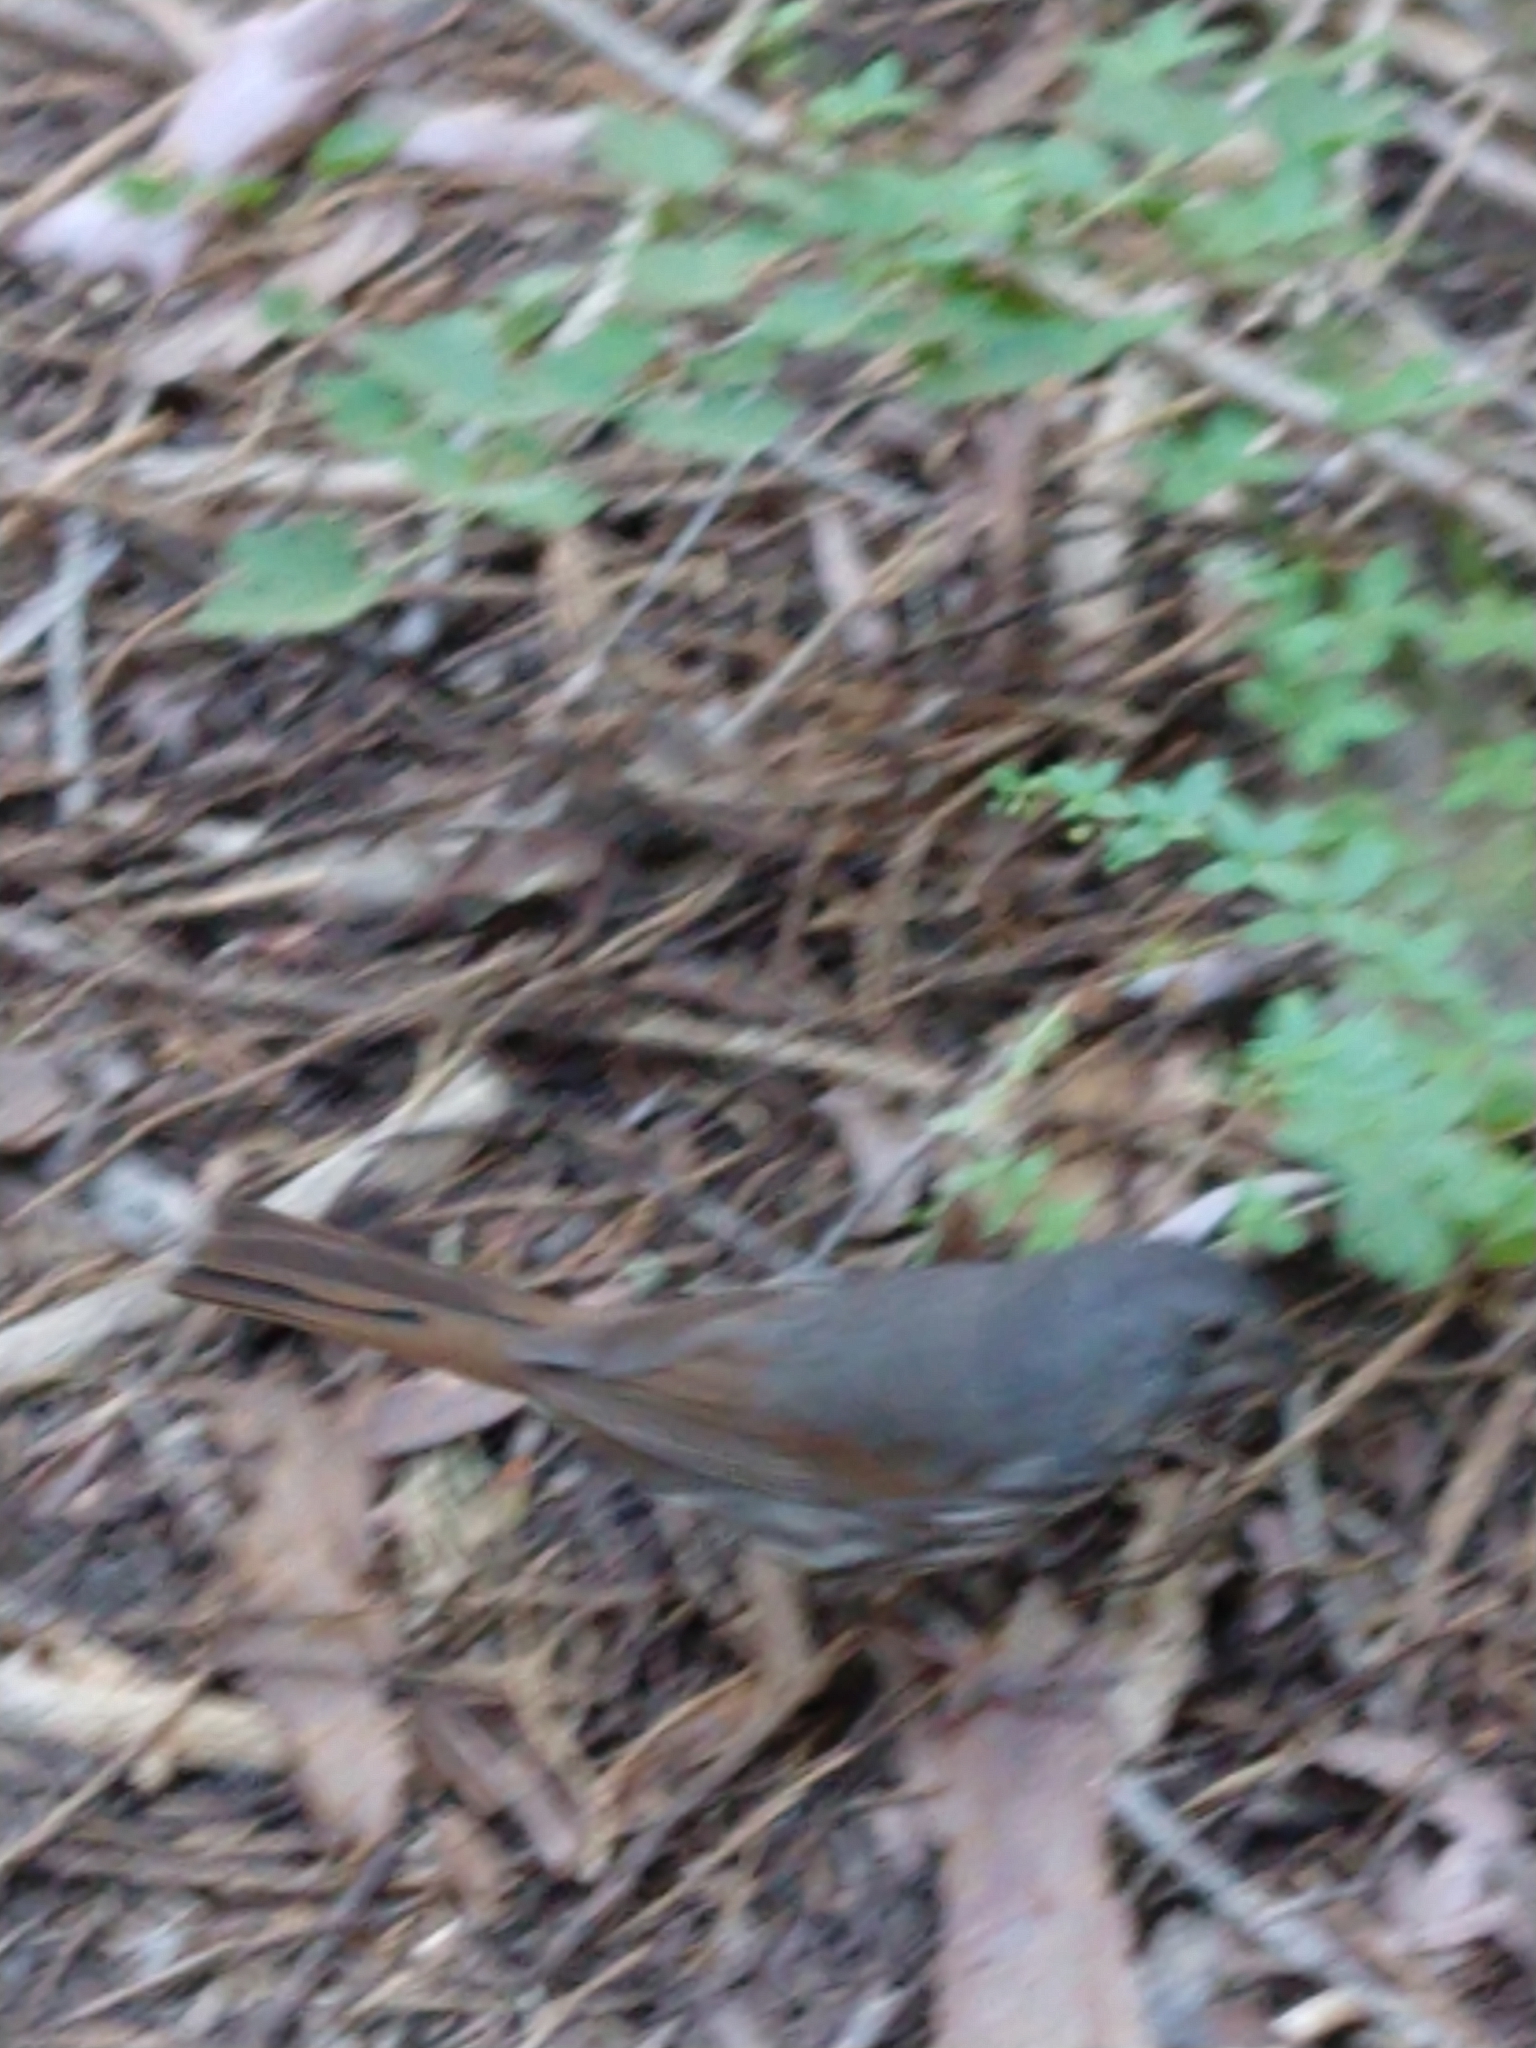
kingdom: Animalia
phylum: Chordata
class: Aves
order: Passeriformes
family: Passerellidae
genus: Passerella
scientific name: Passerella iliaca
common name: Fox sparrow
